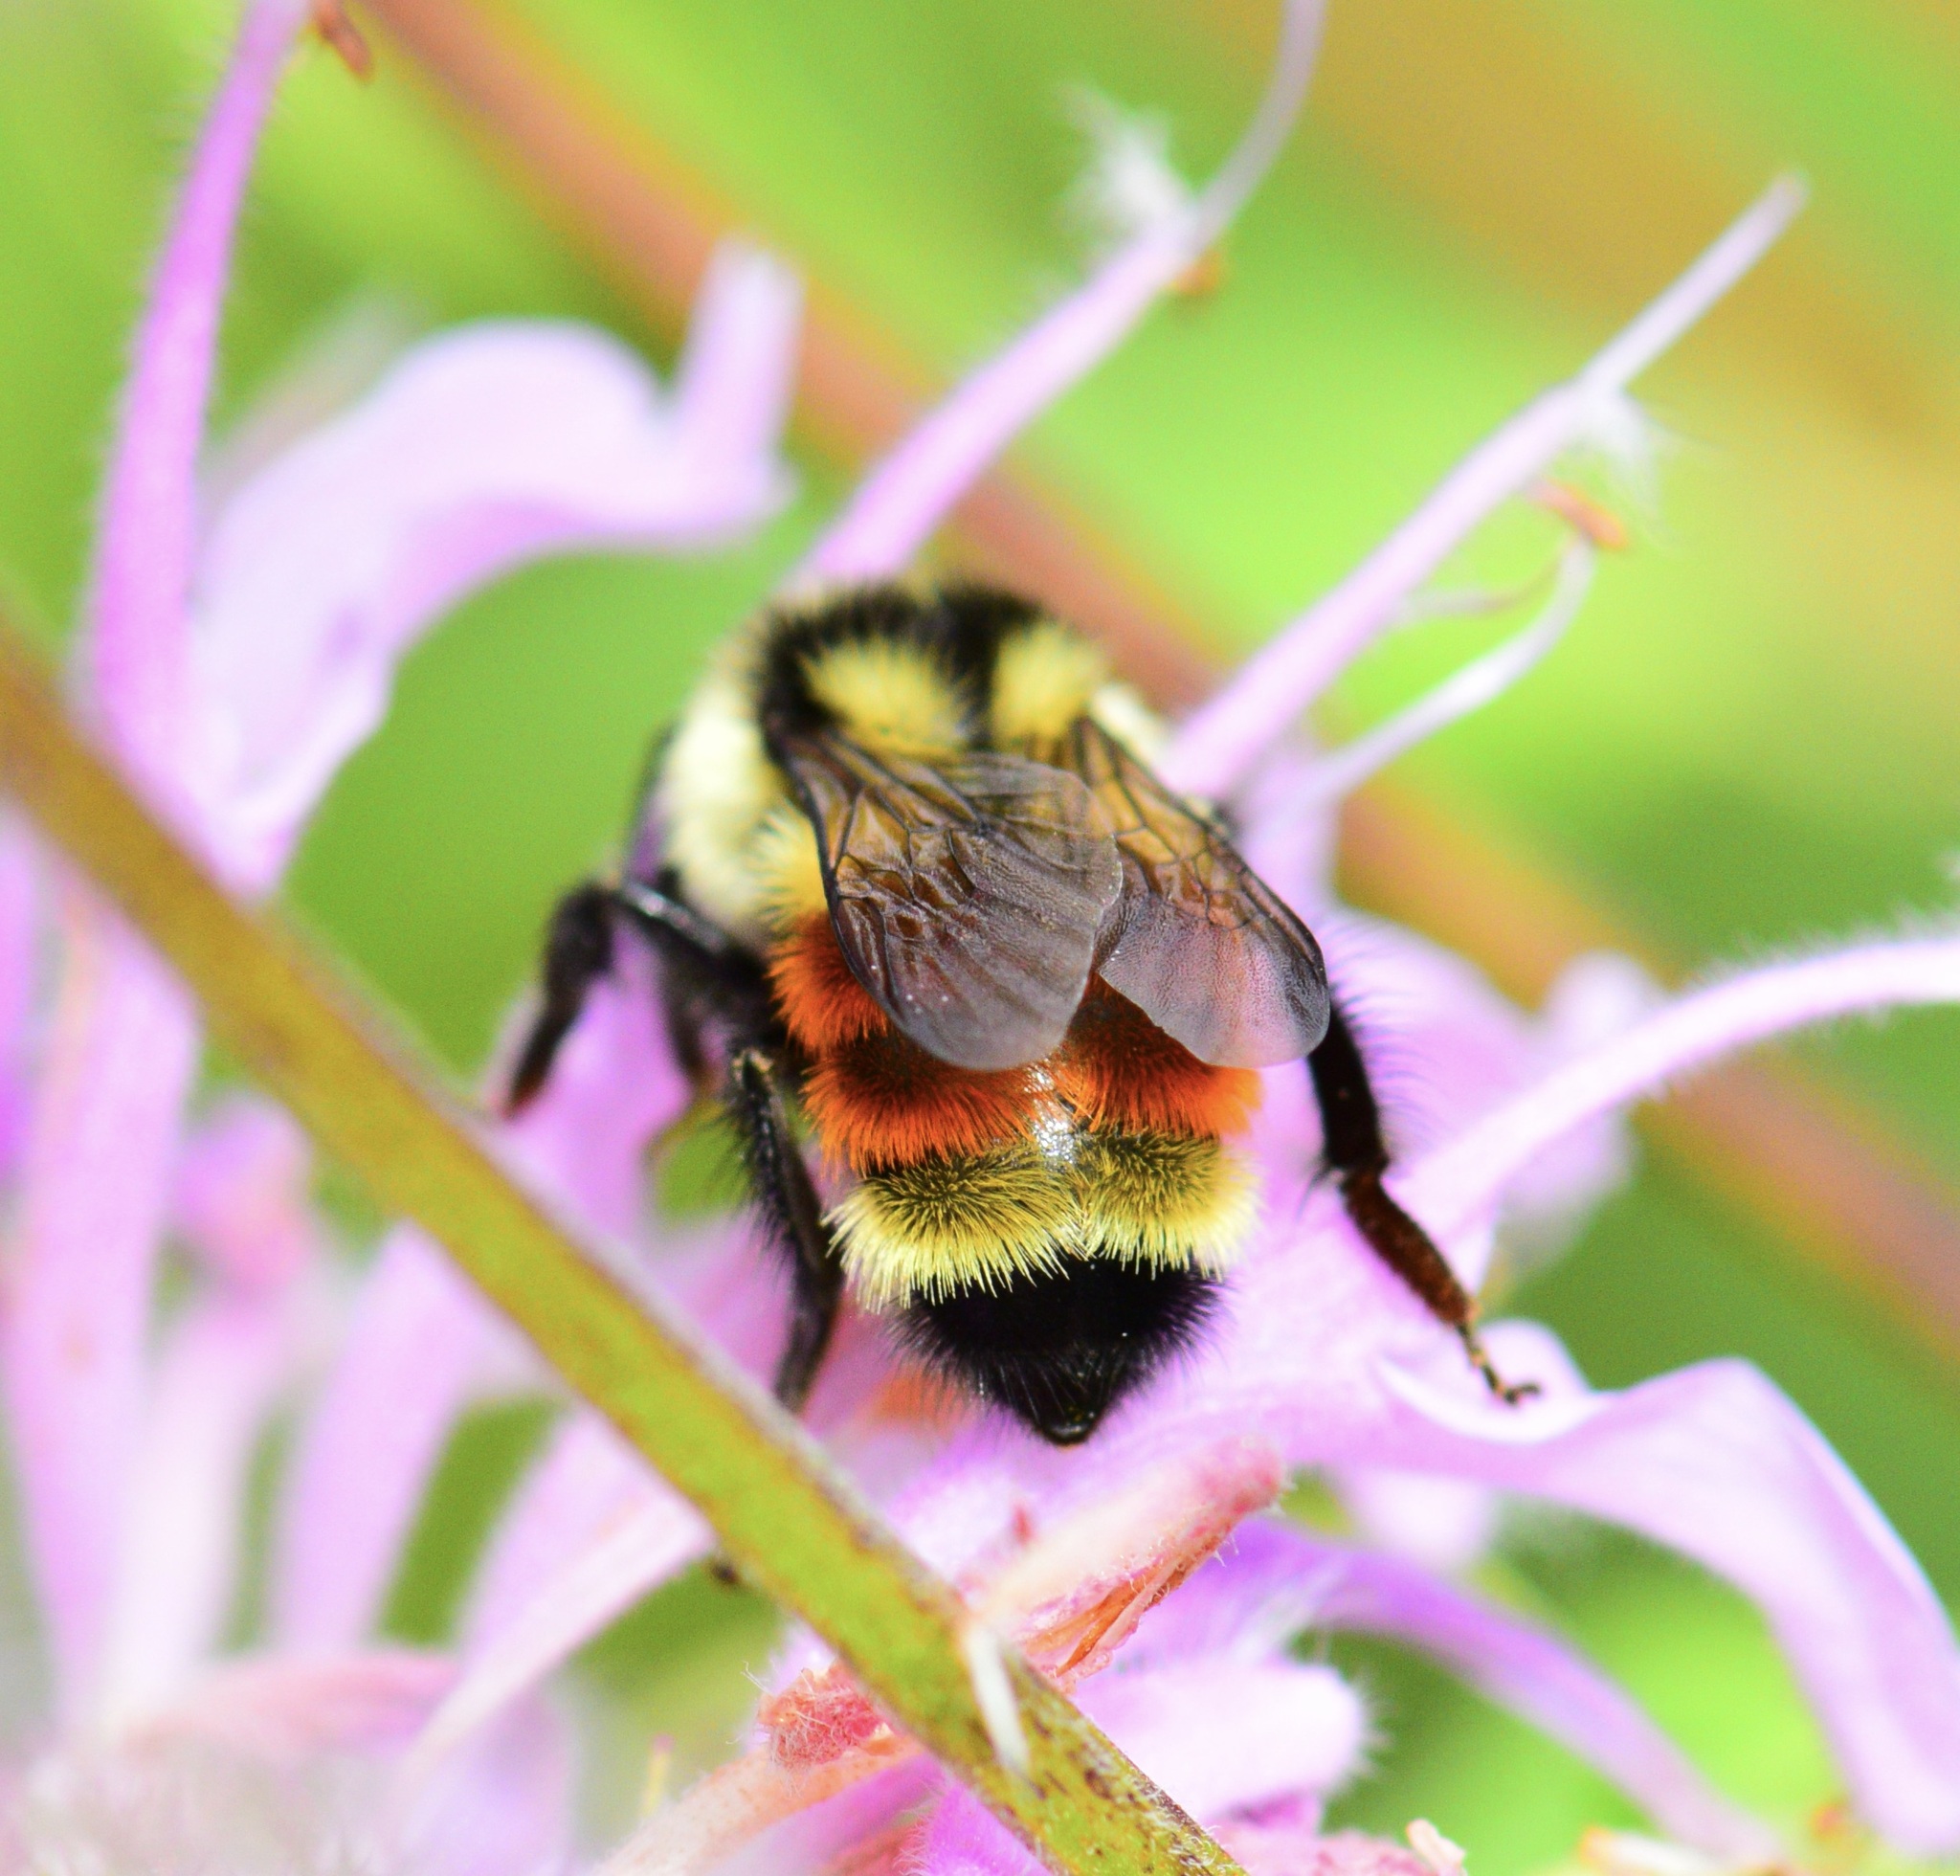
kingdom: Animalia
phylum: Arthropoda
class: Insecta
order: Hymenoptera
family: Apidae
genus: Bombus
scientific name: Bombus ternarius
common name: Tri-colored bumble bee
